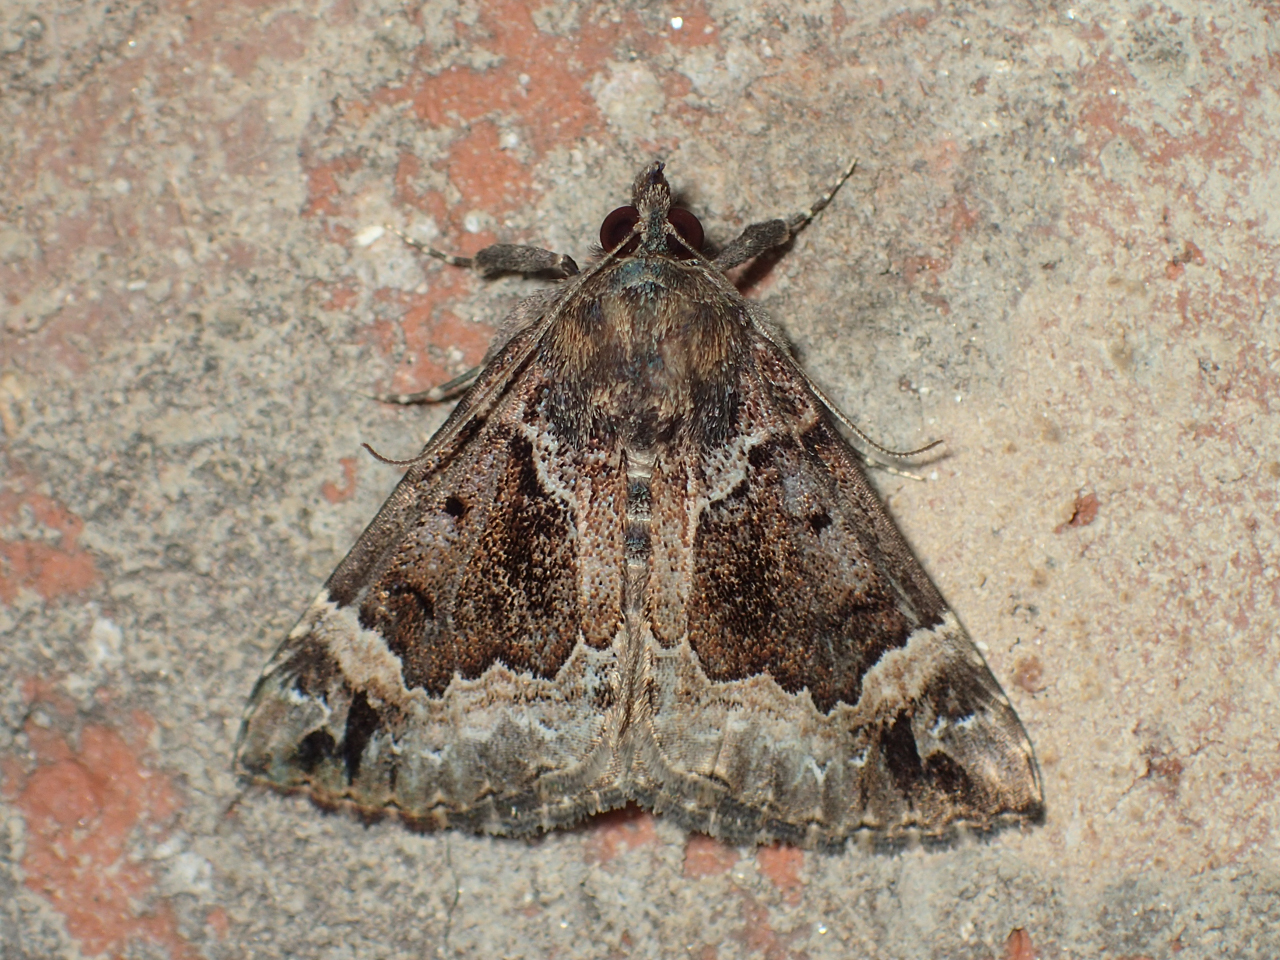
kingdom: Animalia
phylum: Arthropoda
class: Insecta
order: Lepidoptera
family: Erebidae
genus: Hypena
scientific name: Hypena palparia
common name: Mottled bomolocha moth
